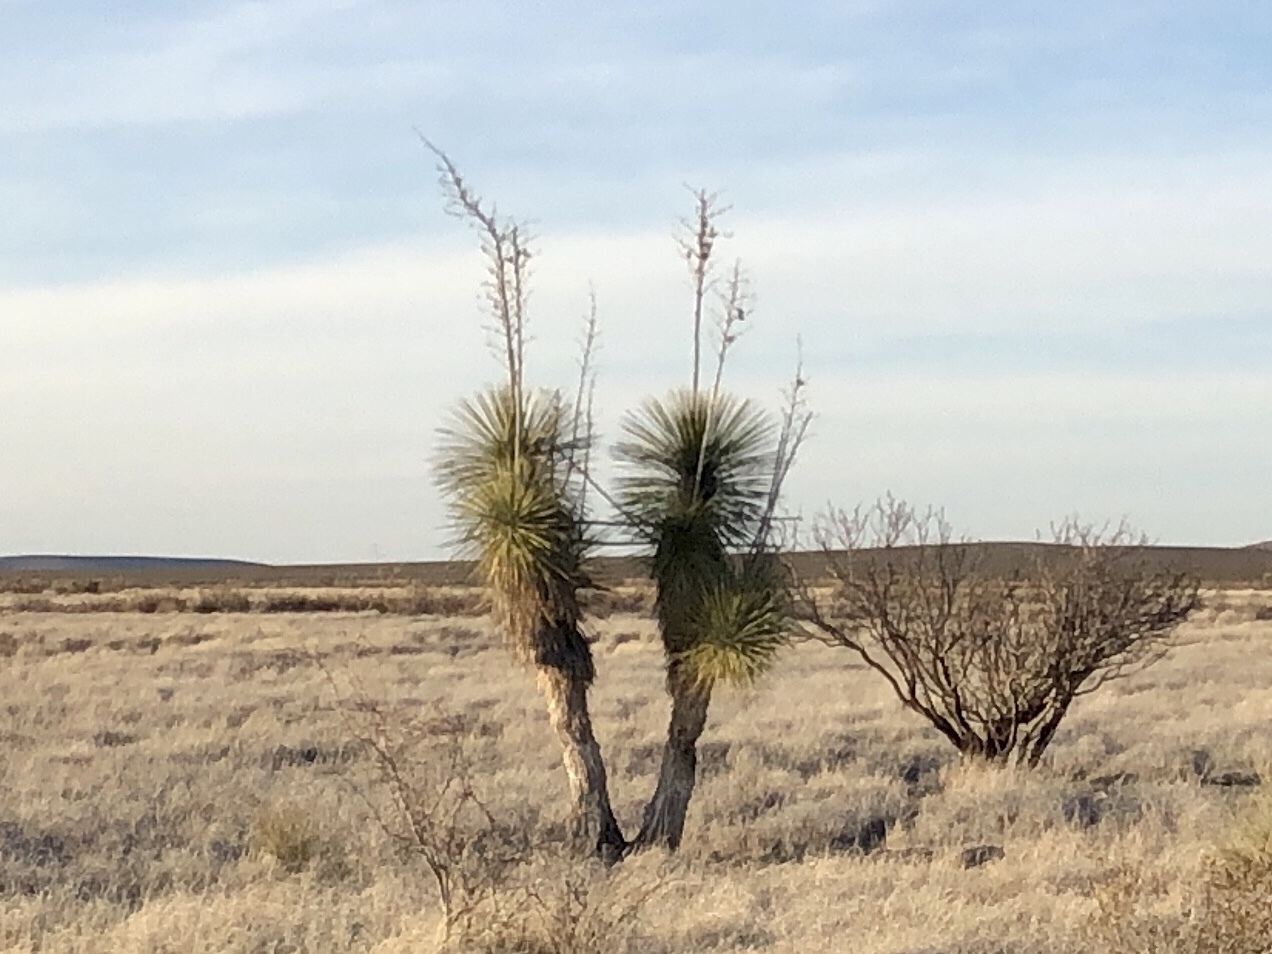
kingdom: Plantae
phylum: Tracheophyta
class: Liliopsida
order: Asparagales
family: Asparagaceae
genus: Yucca
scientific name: Yucca elata
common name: Palmella
